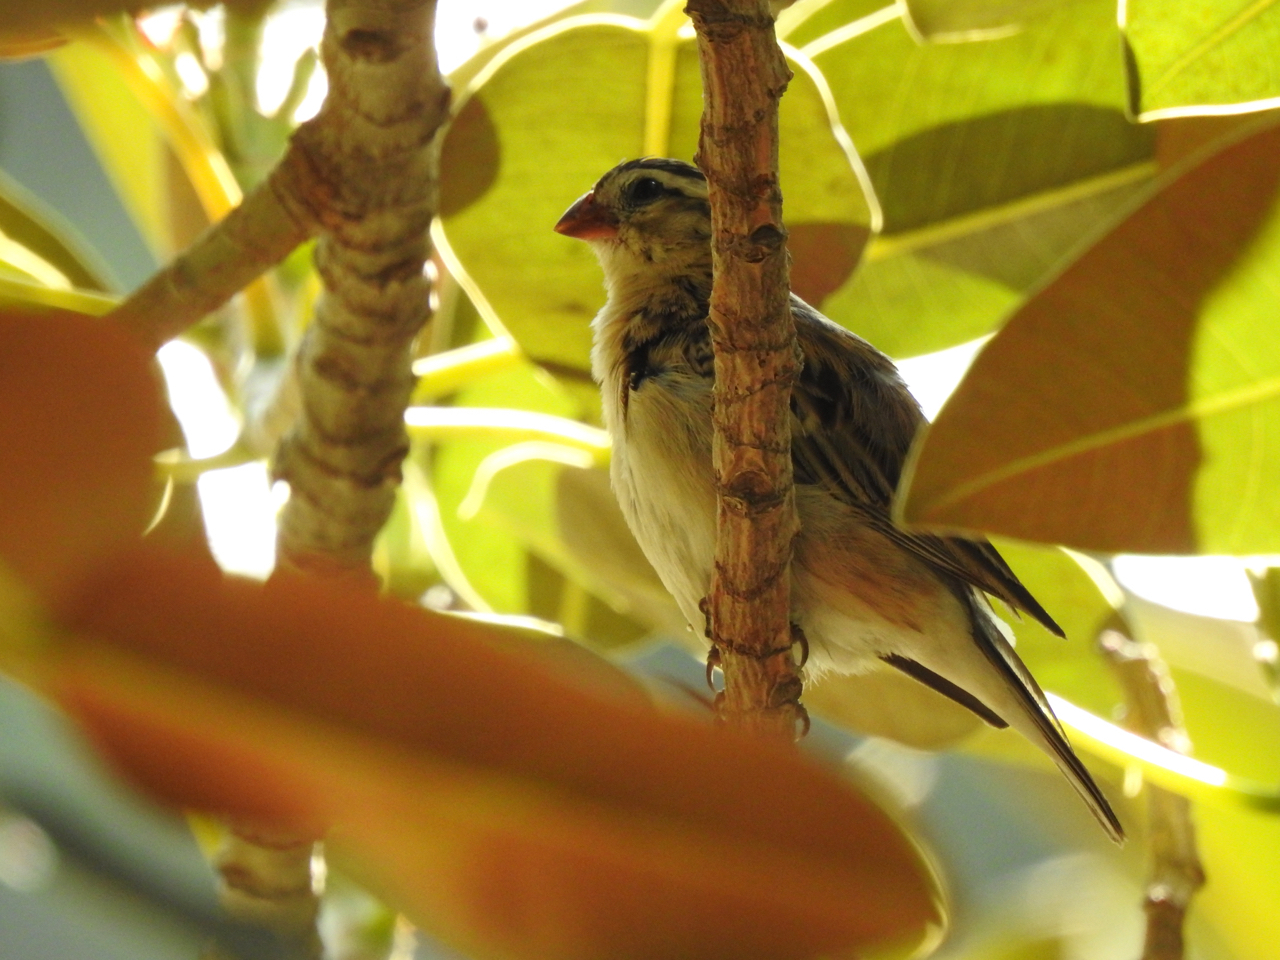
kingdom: Animalia
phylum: Chordata
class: Aves
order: Passeriformes
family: Viduidae
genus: Vidua
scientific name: Vidua macroura
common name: Pin-tailed whydah
